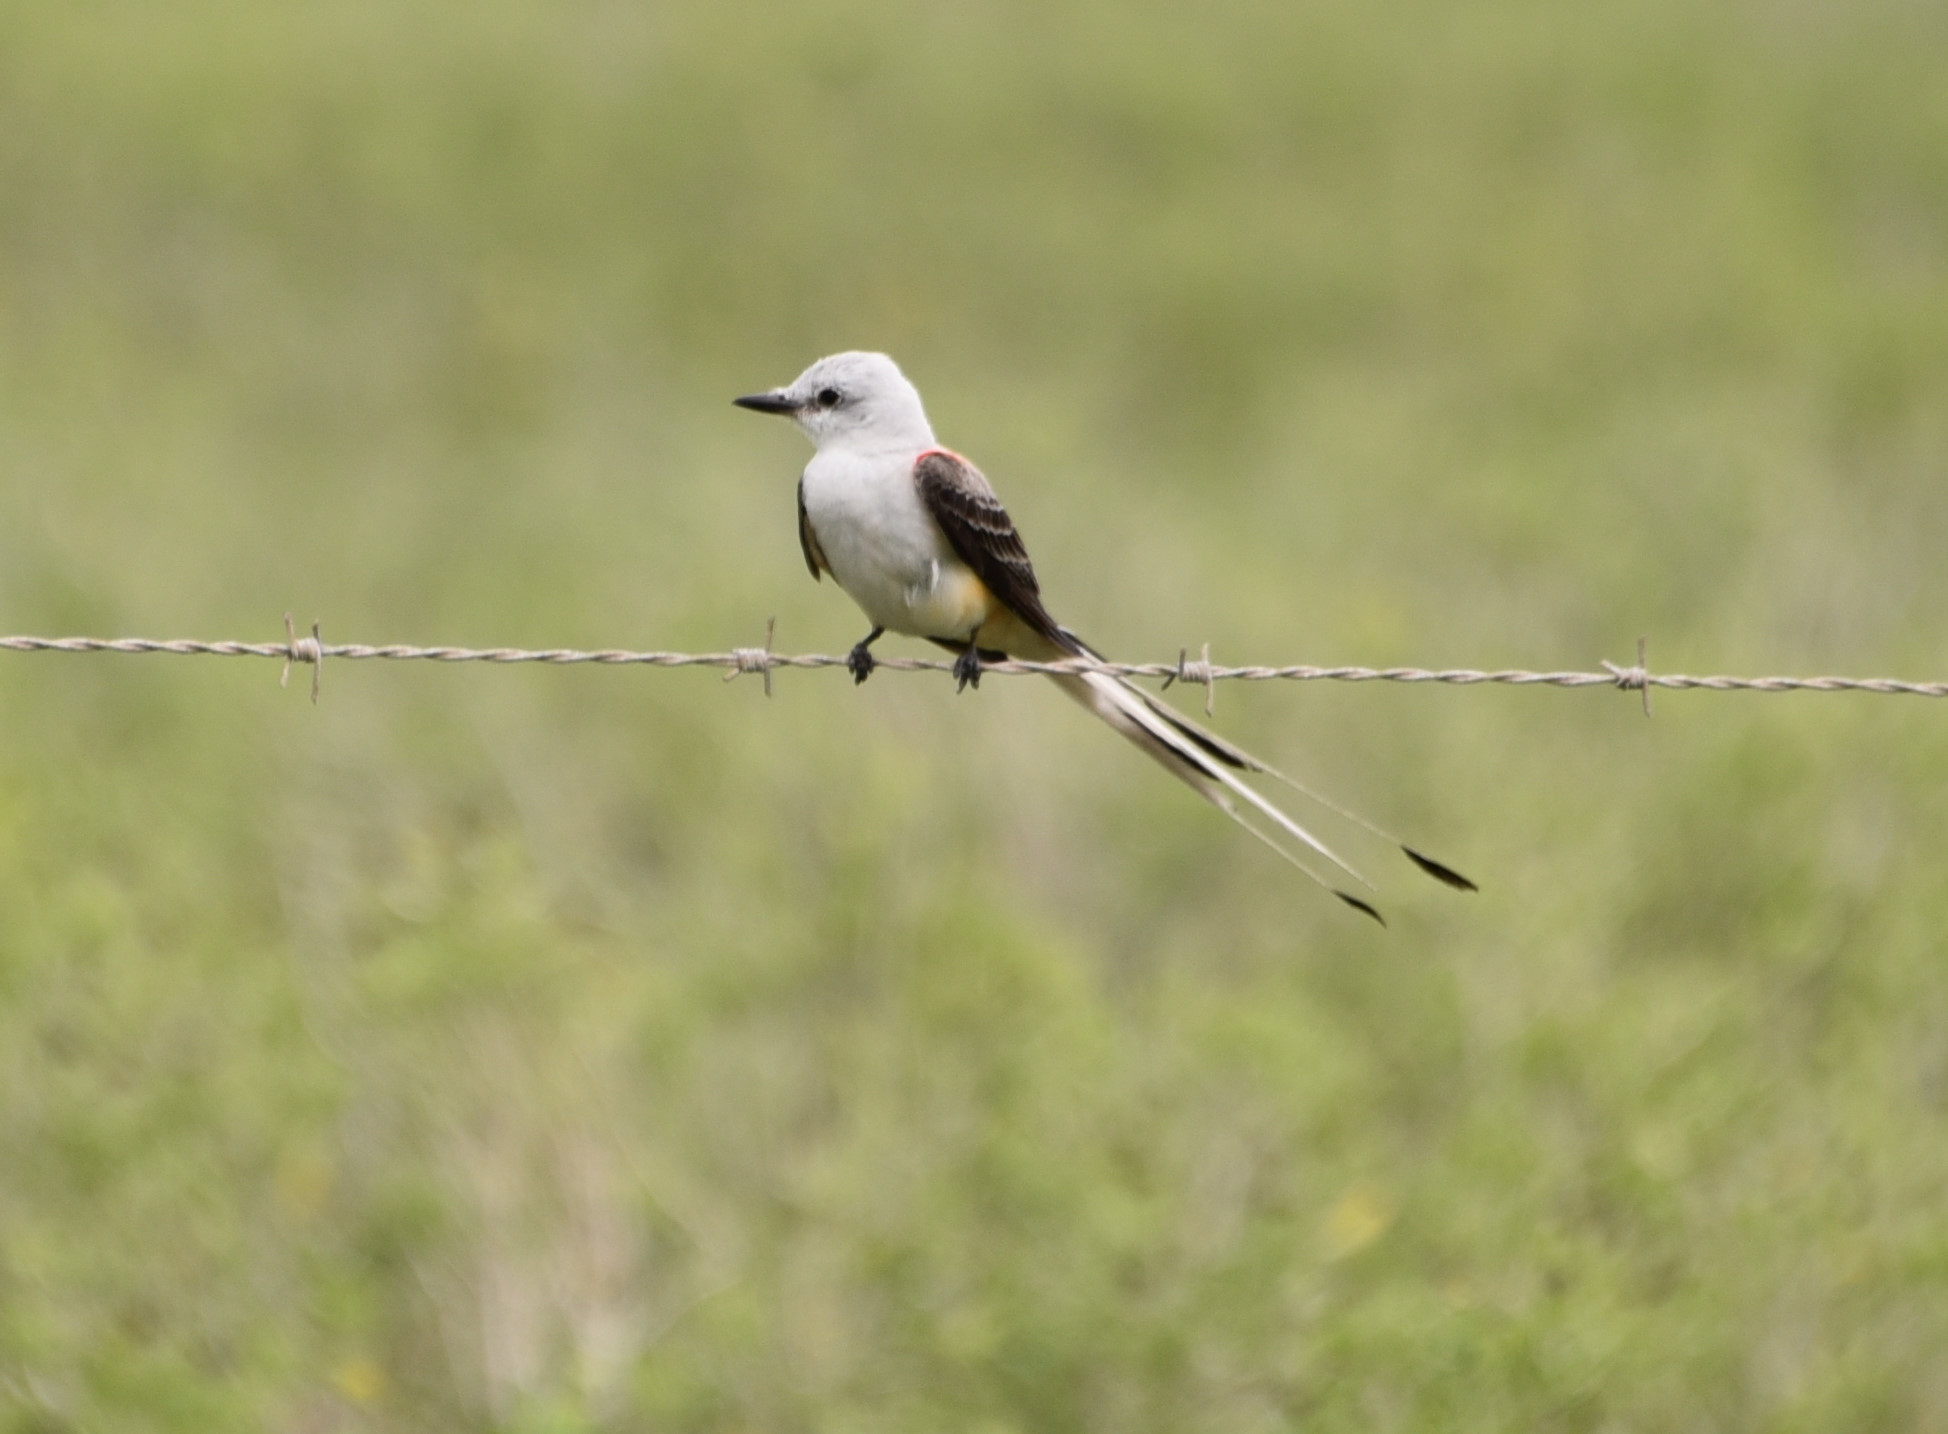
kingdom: Animalia
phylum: Chordata
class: Aves
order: Passeriformes
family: Tyrannidae
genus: Tyrannus
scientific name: Tyrannus forficatus
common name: Scissor-tailed flycatcher
